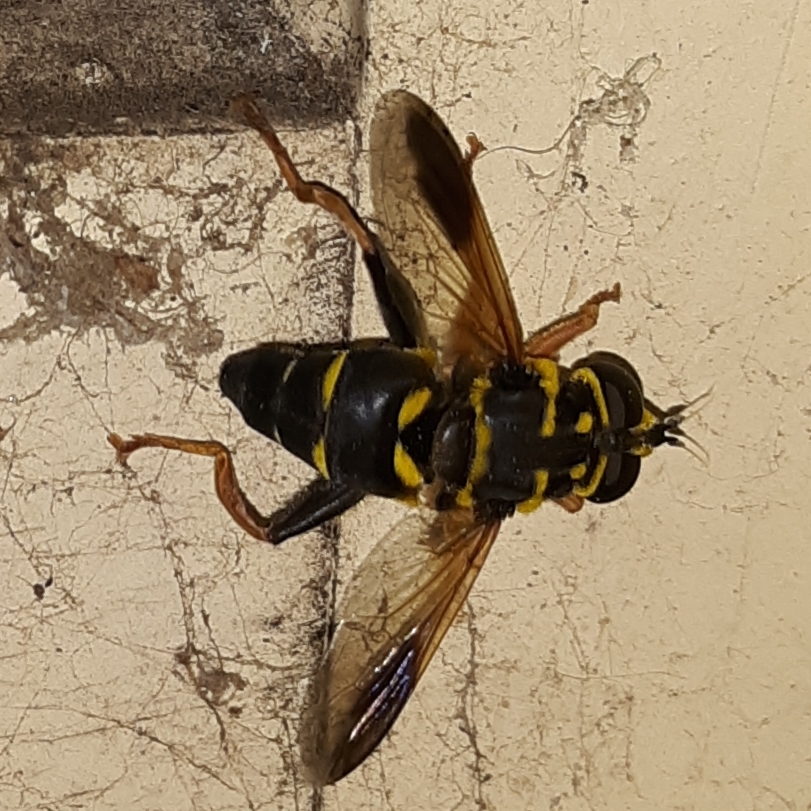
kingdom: Animalia
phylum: Arthropoda
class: Insecta
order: Diptera
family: Syrphidae
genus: Meromacrus
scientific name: Meromacrus acutus
